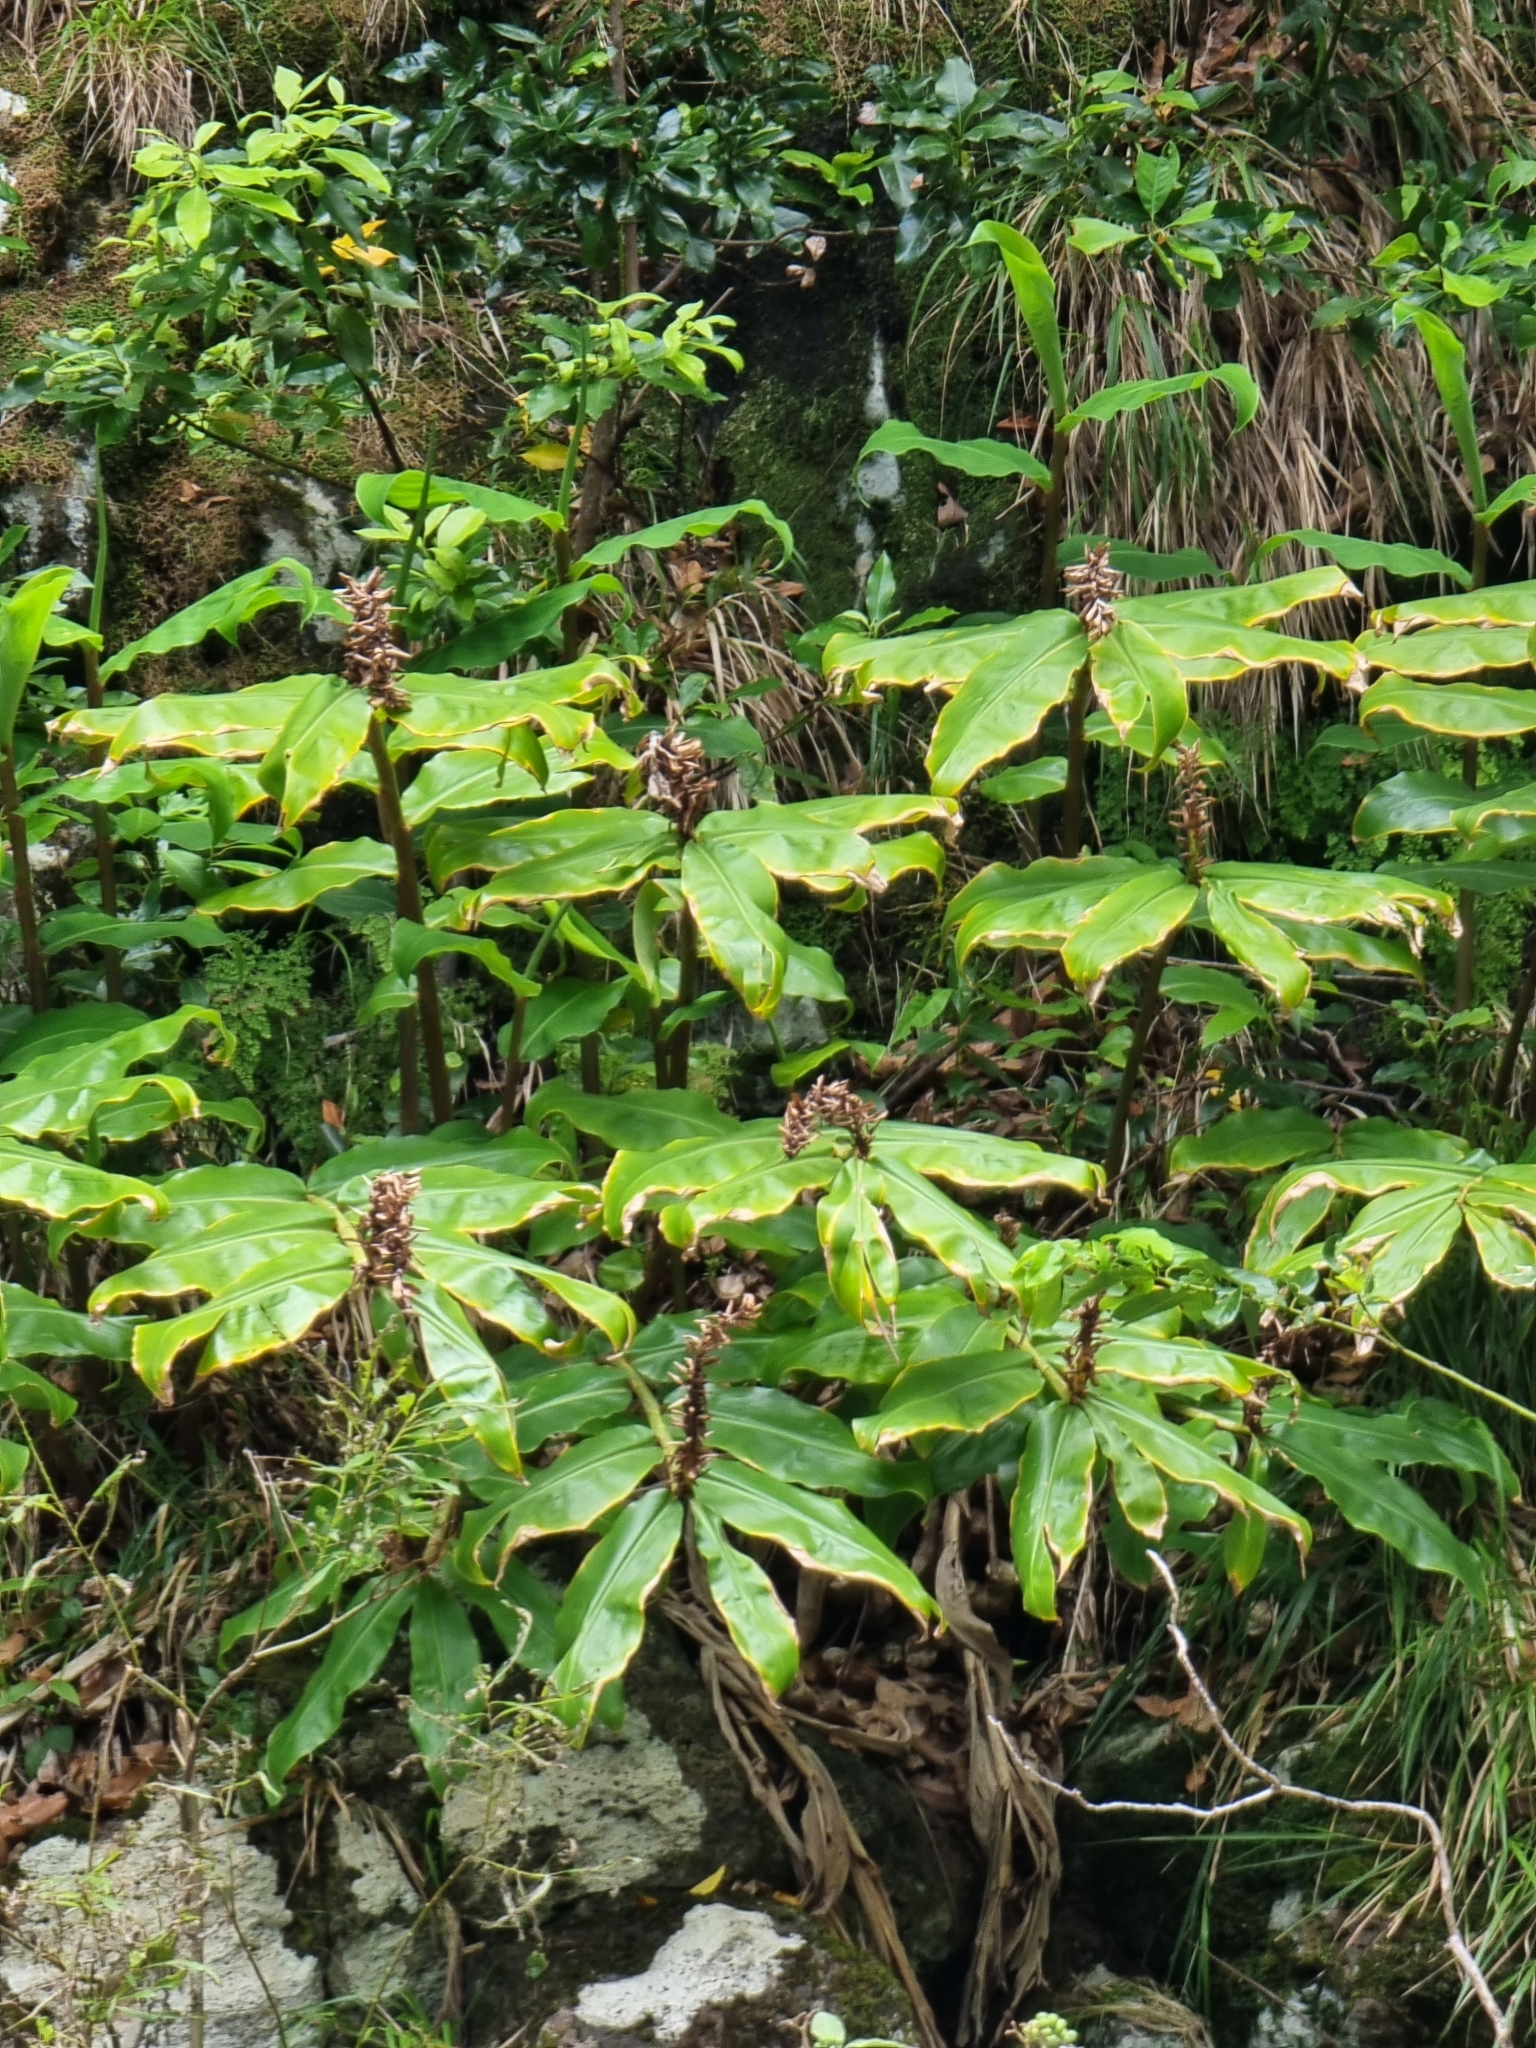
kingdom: Plantae
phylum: Tracheophyta
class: Liliopsida
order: Zingiberales
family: Zingiberaceae
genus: Hedychium
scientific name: Hedychium gardnerianum
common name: Himalayan ginger
